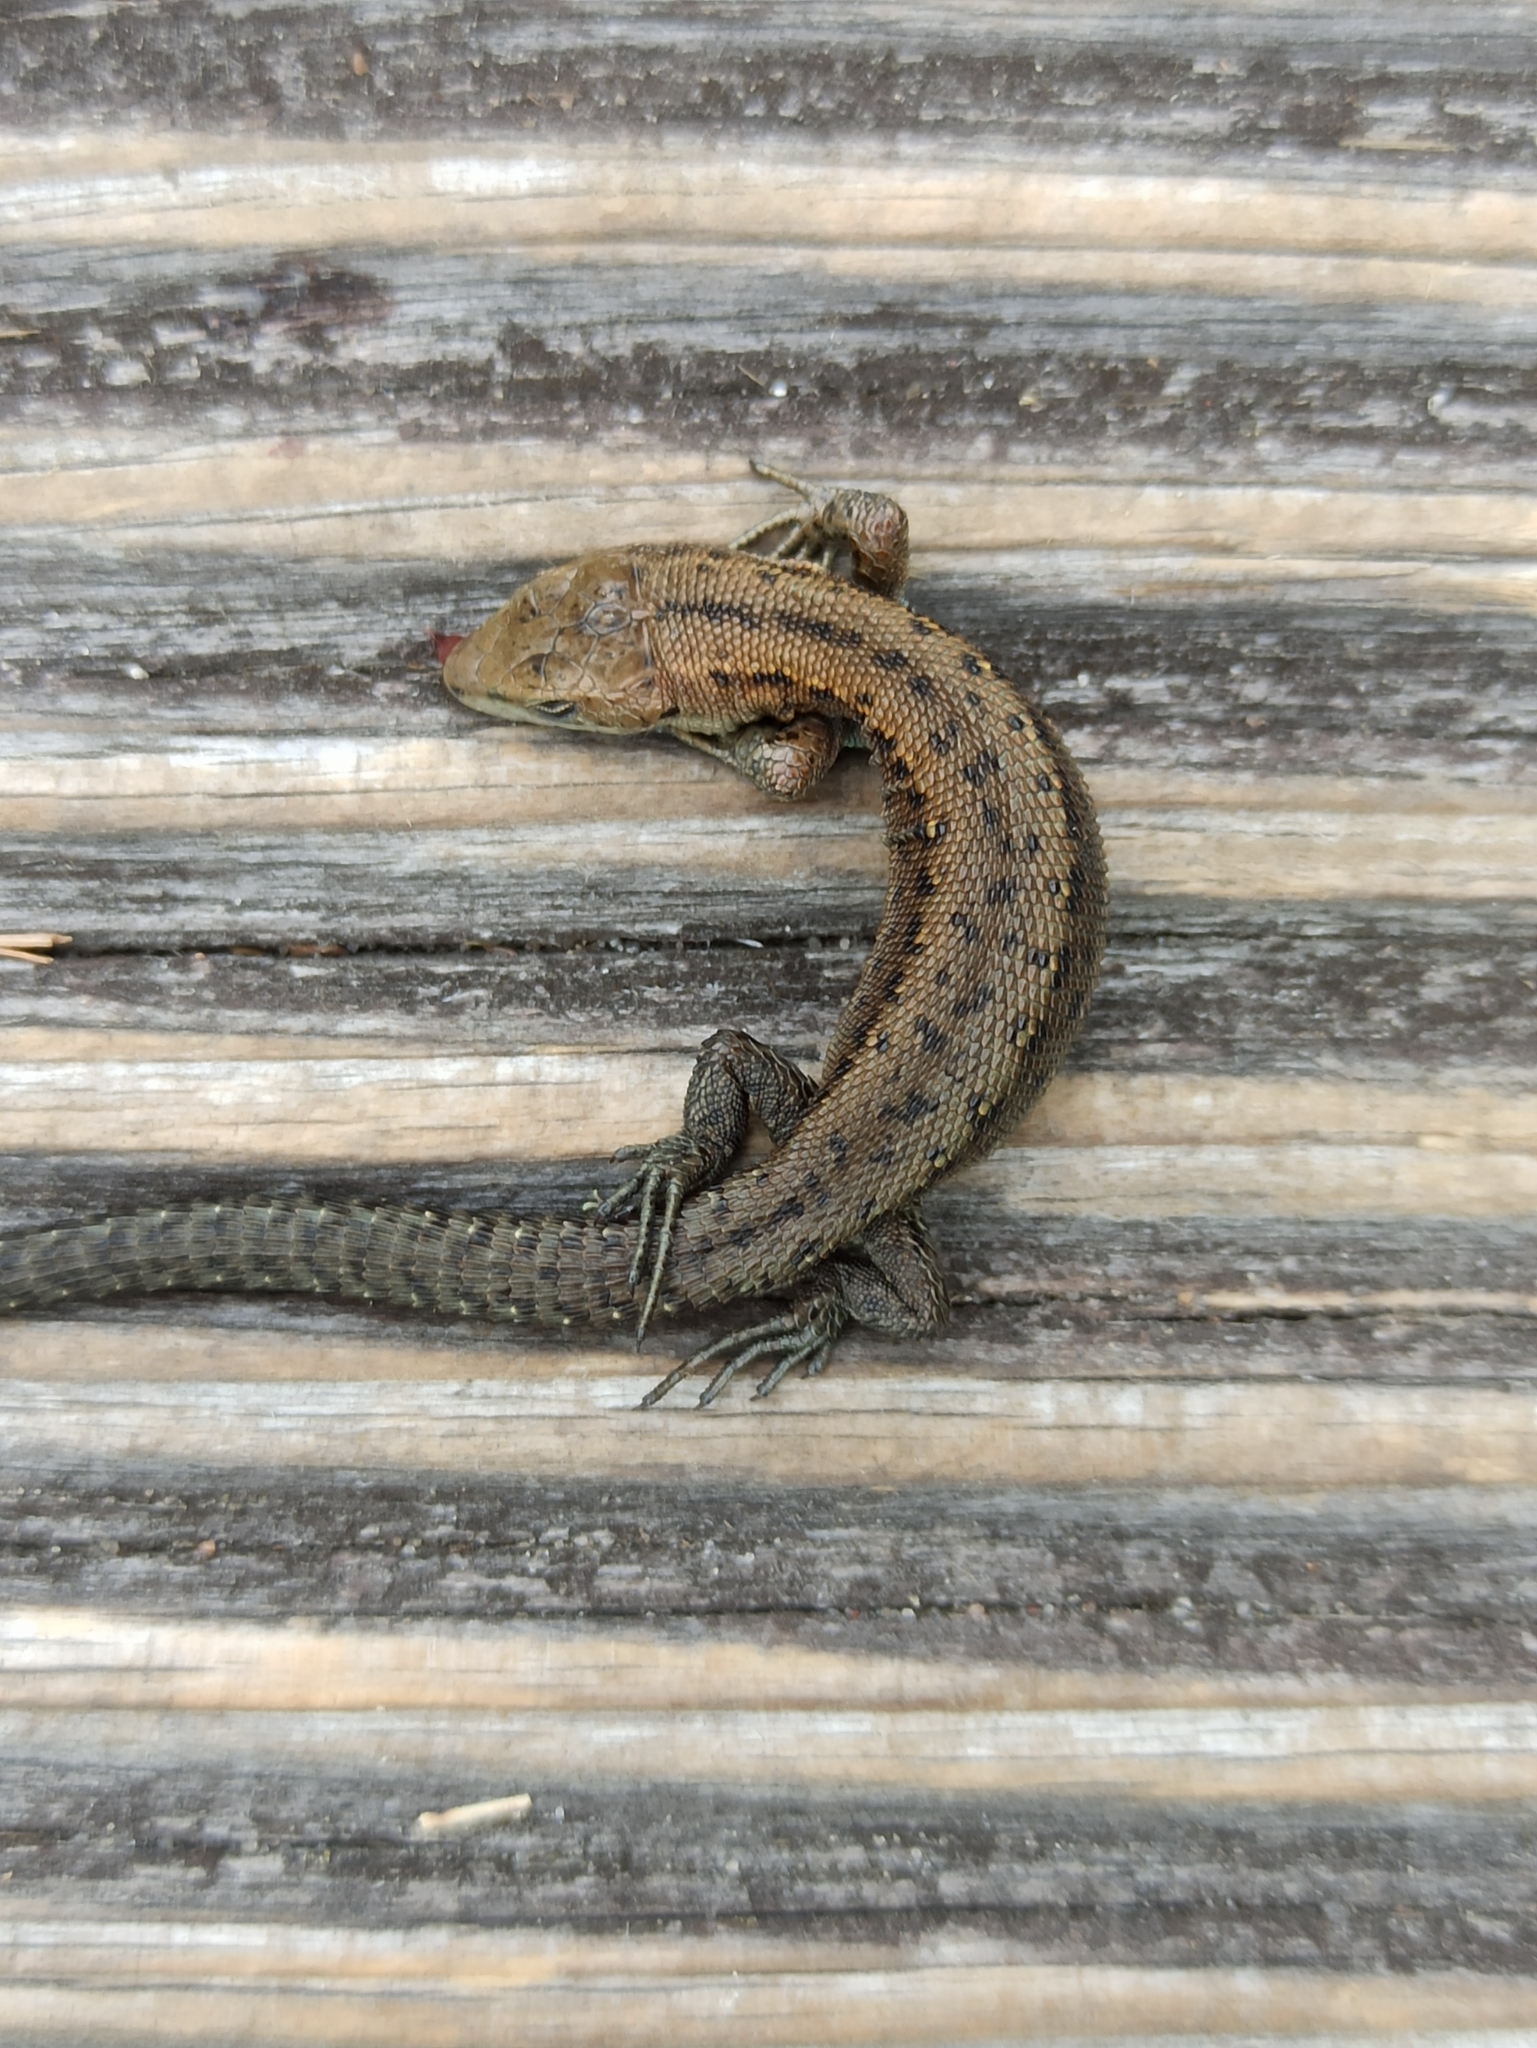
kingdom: Animalia
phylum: Chordata
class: Squamata
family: Lacertidae
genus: Zootoca
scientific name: Zootoca vivipara
